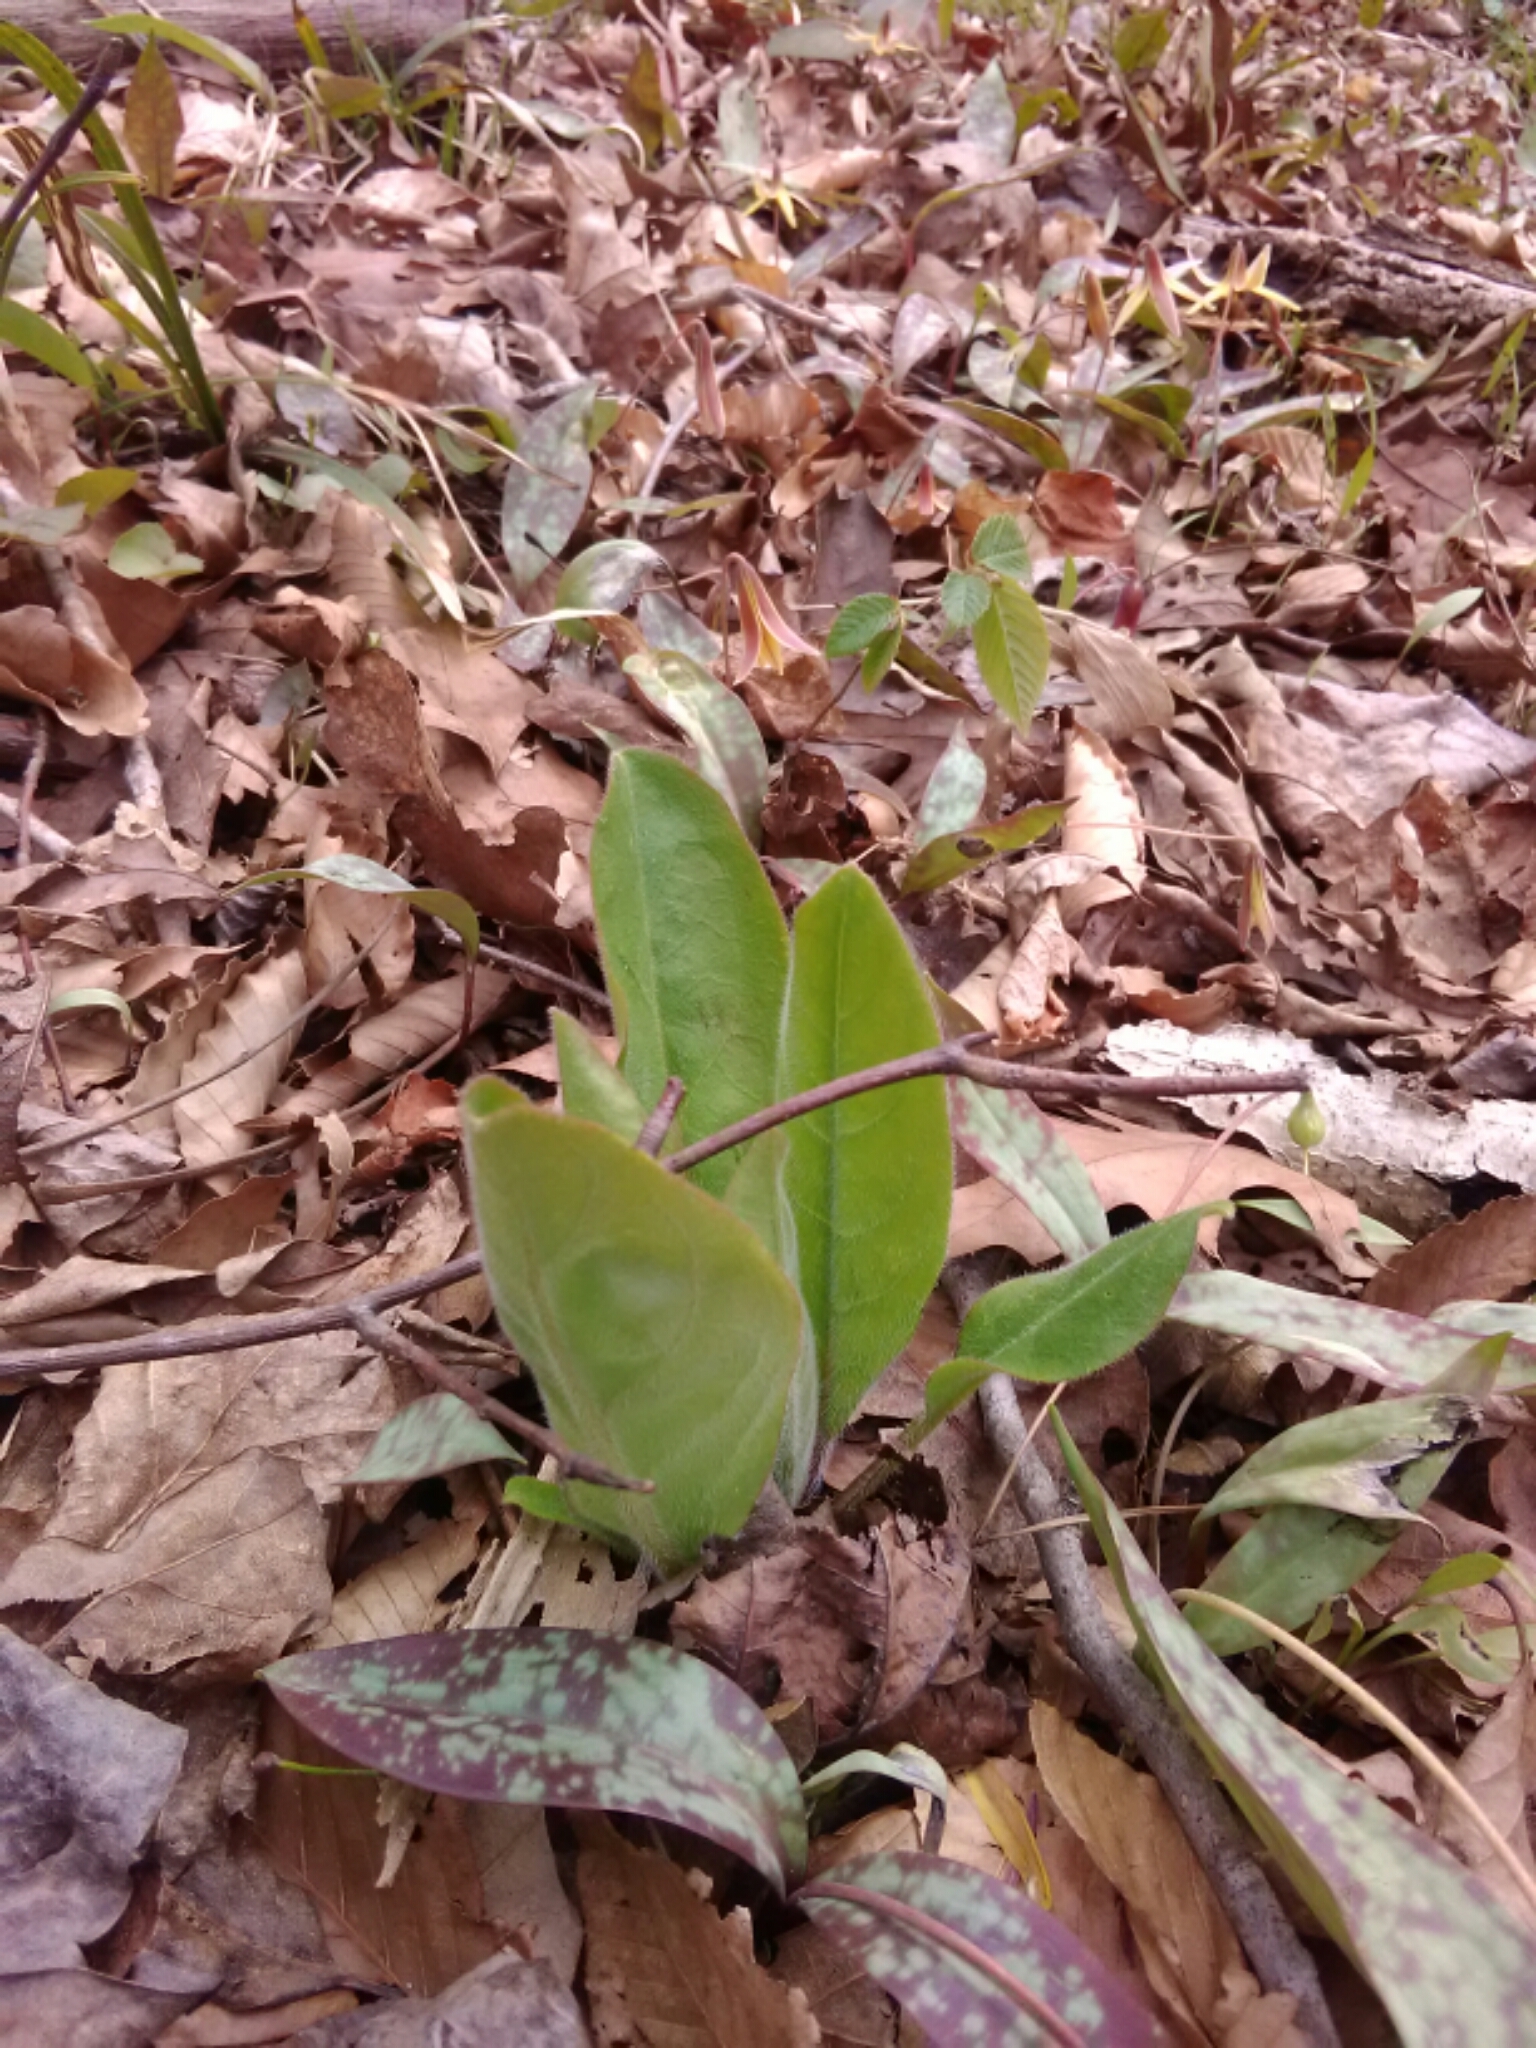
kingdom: Plantae
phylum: Tracheophyta
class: Magnoliopsida
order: Boraginales
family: Boraginaceae
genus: Andersonglossum
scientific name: Andersonglossum virginianum
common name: Wild comfrey
